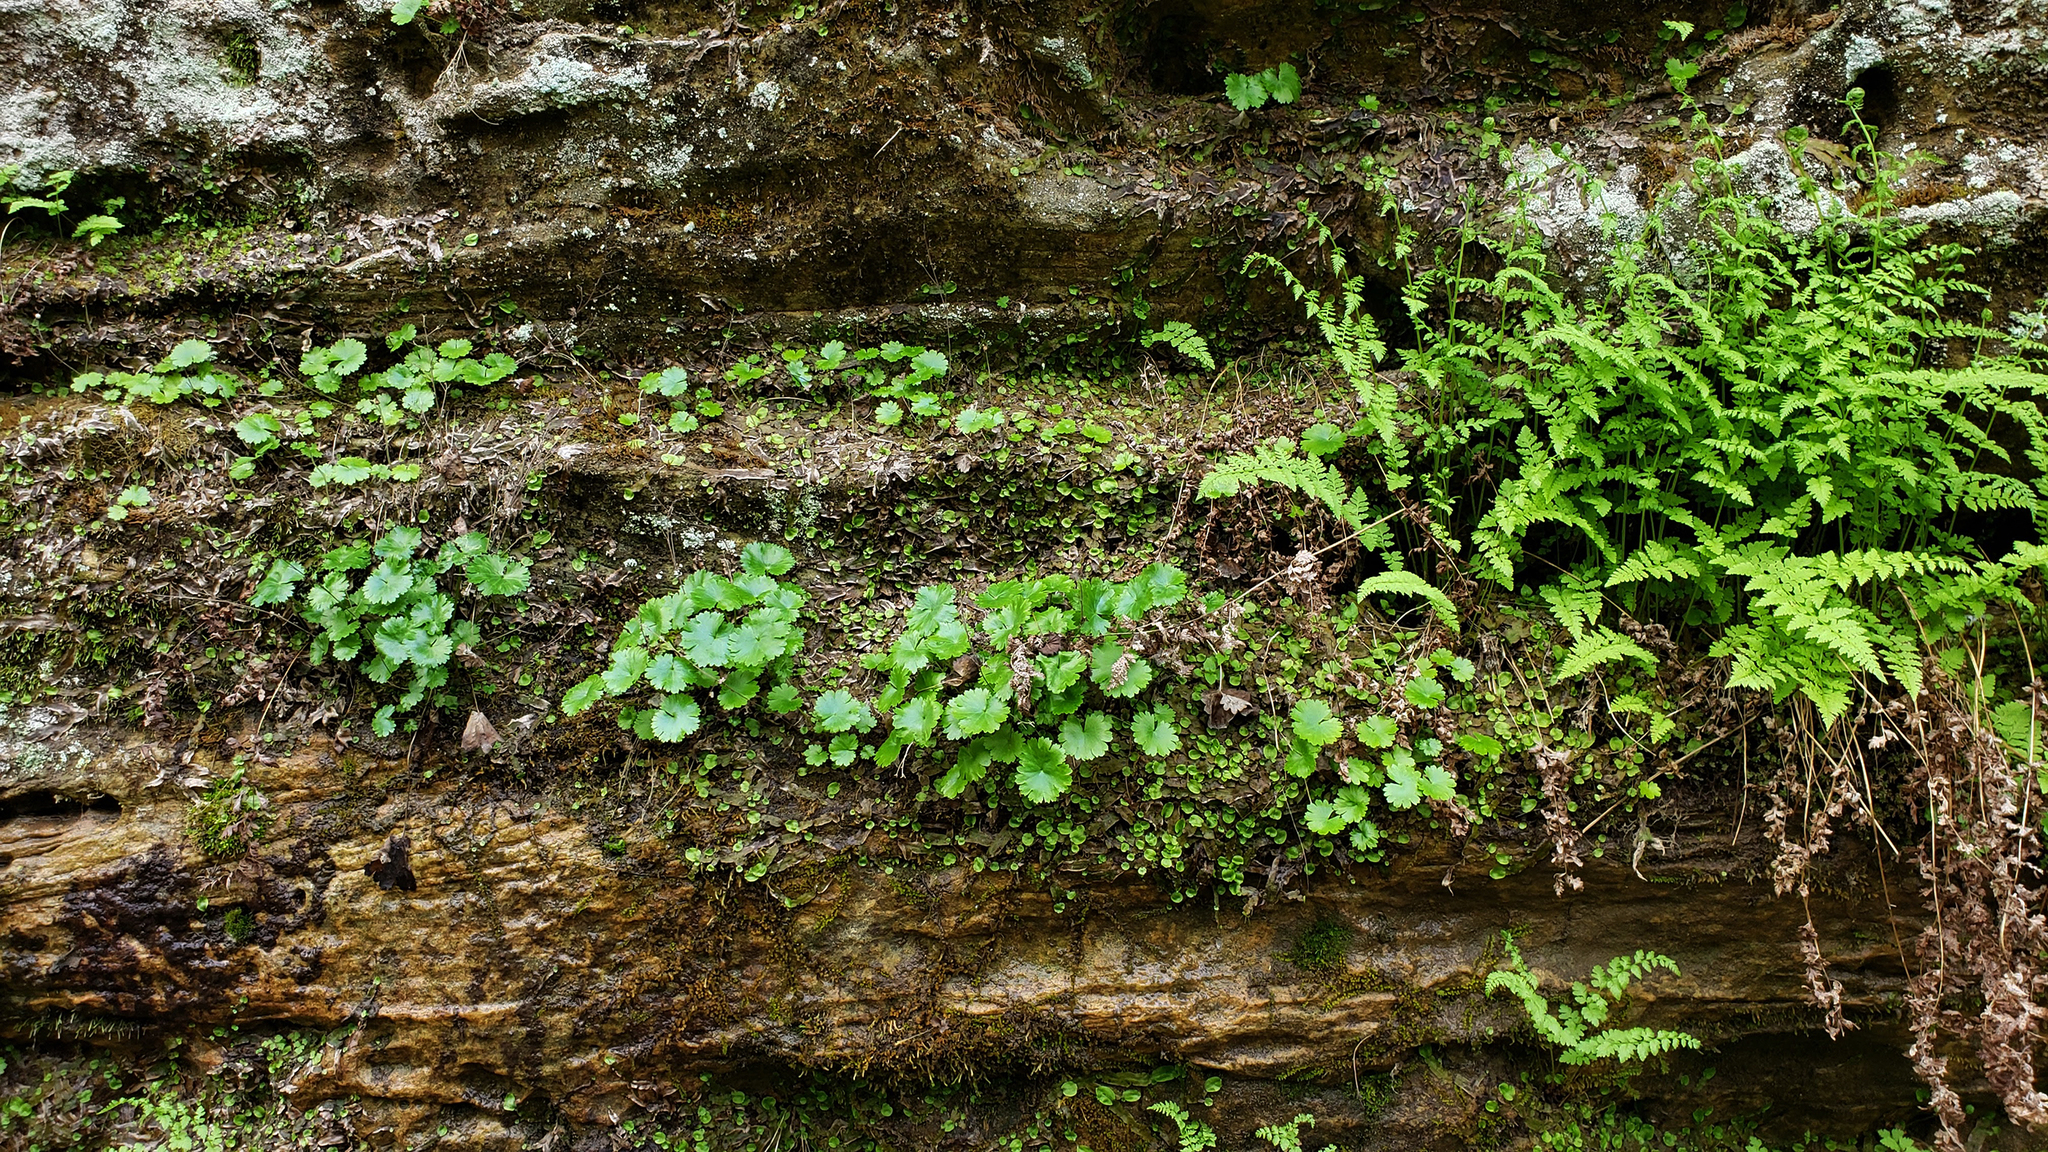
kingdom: Plantae
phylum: Tracheophyta
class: Magnoliopsida
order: Saxifragales
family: Saxifragaceae
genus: Sullivantia
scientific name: Sullivantia sullivantii
